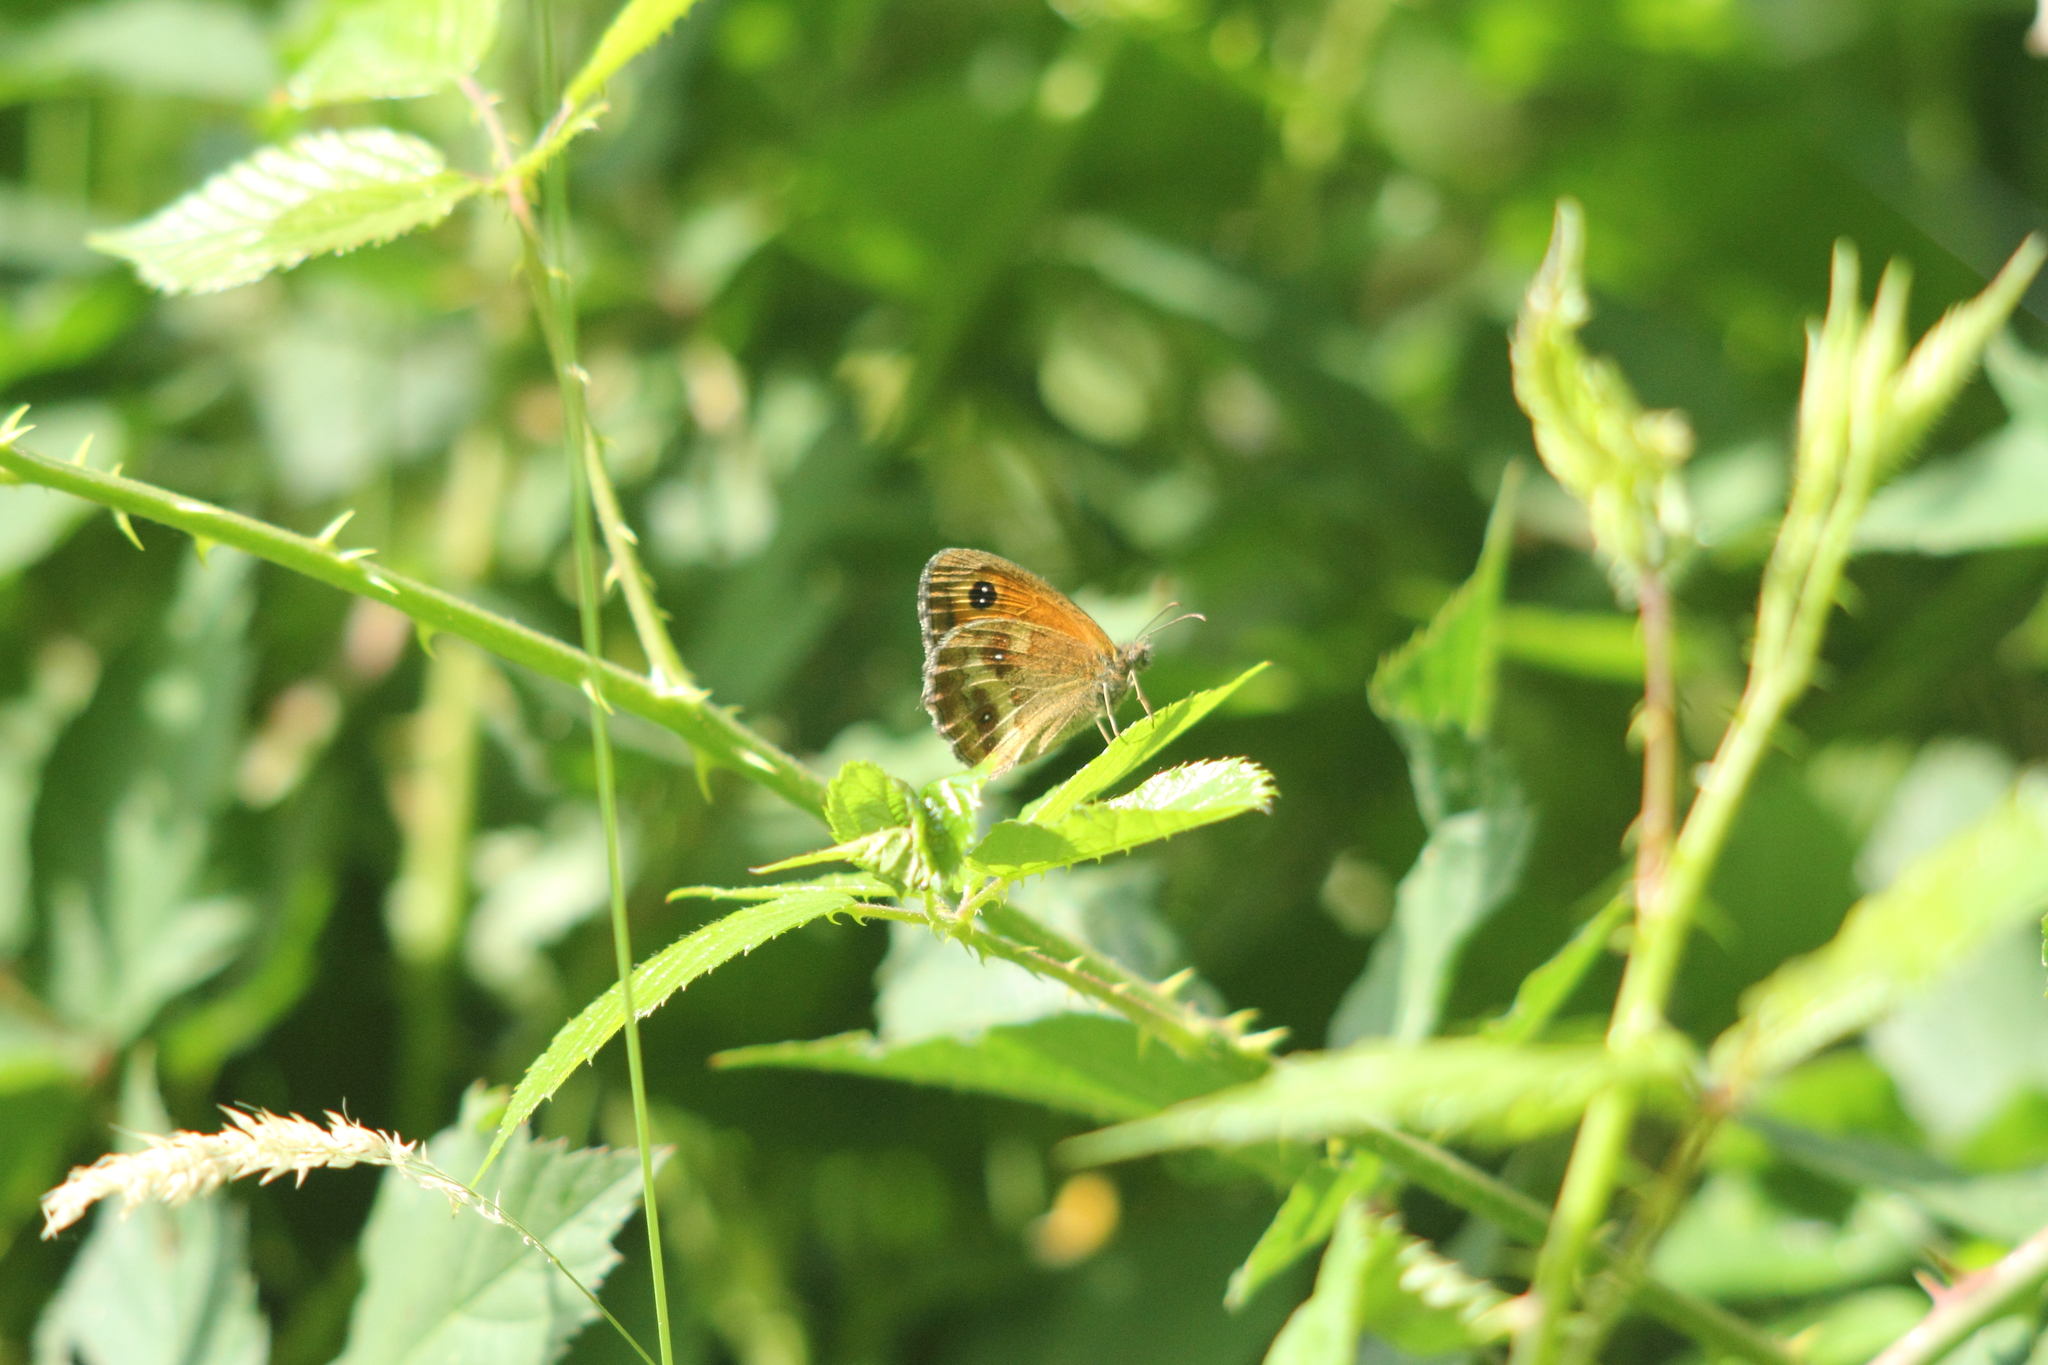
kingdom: Animalia
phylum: Arthropoda
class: Insecta
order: Lepidoptera
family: Nymphalidae
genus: Pyronia
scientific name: Pyronia tithonus
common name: Gatekeeper
